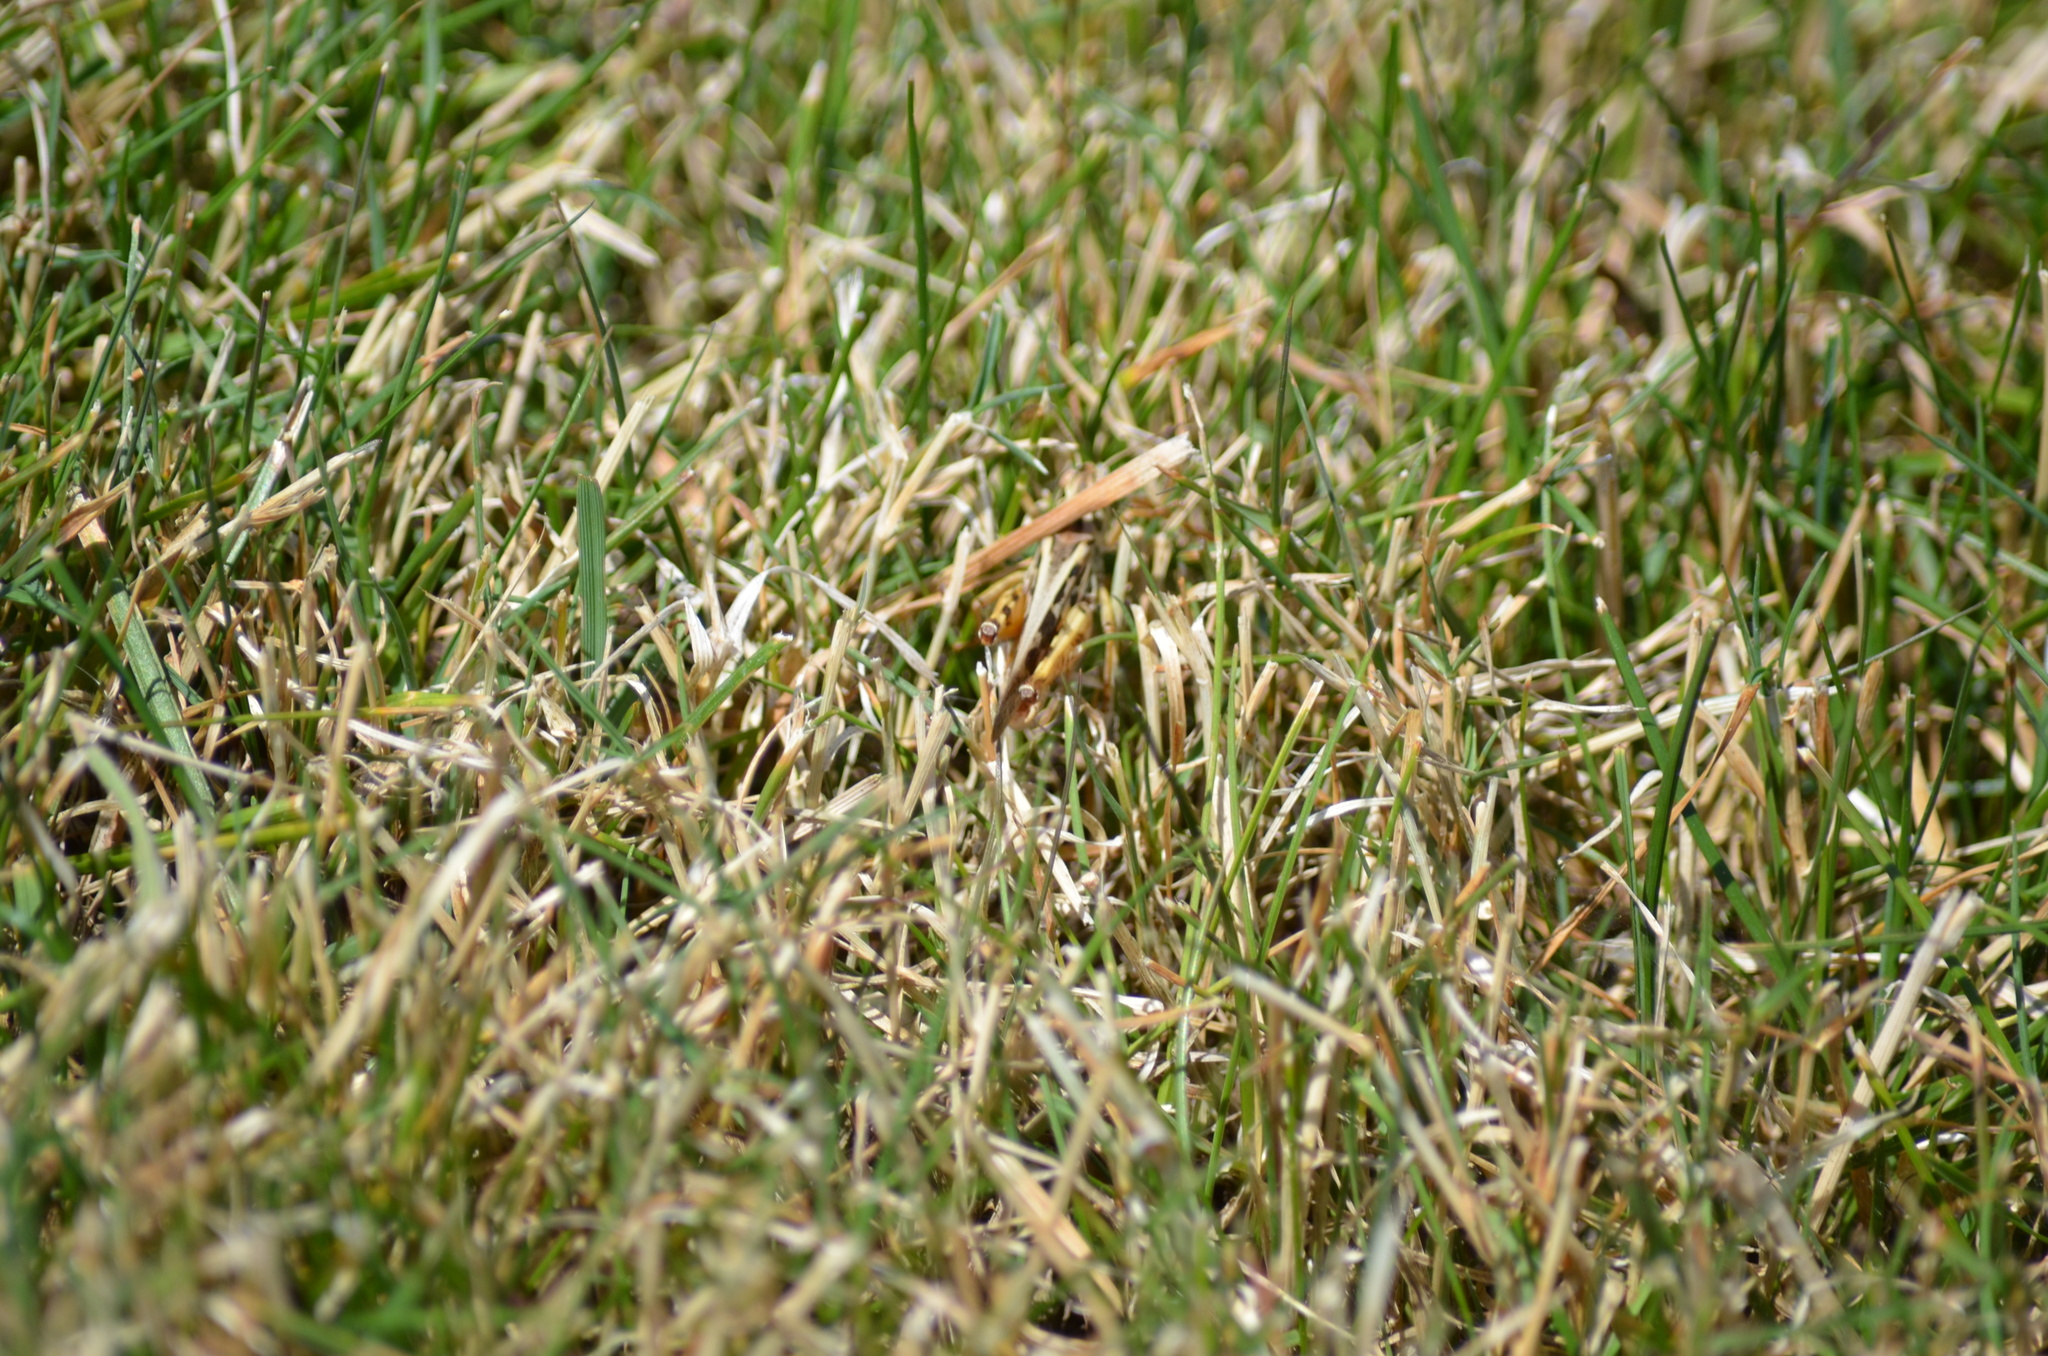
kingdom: Animalia
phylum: Arthropoda
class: Insecta
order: Orthoptera
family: Acrididae
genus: Camnula
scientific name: Camnula pellucida
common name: Clear-winged grasshopper
